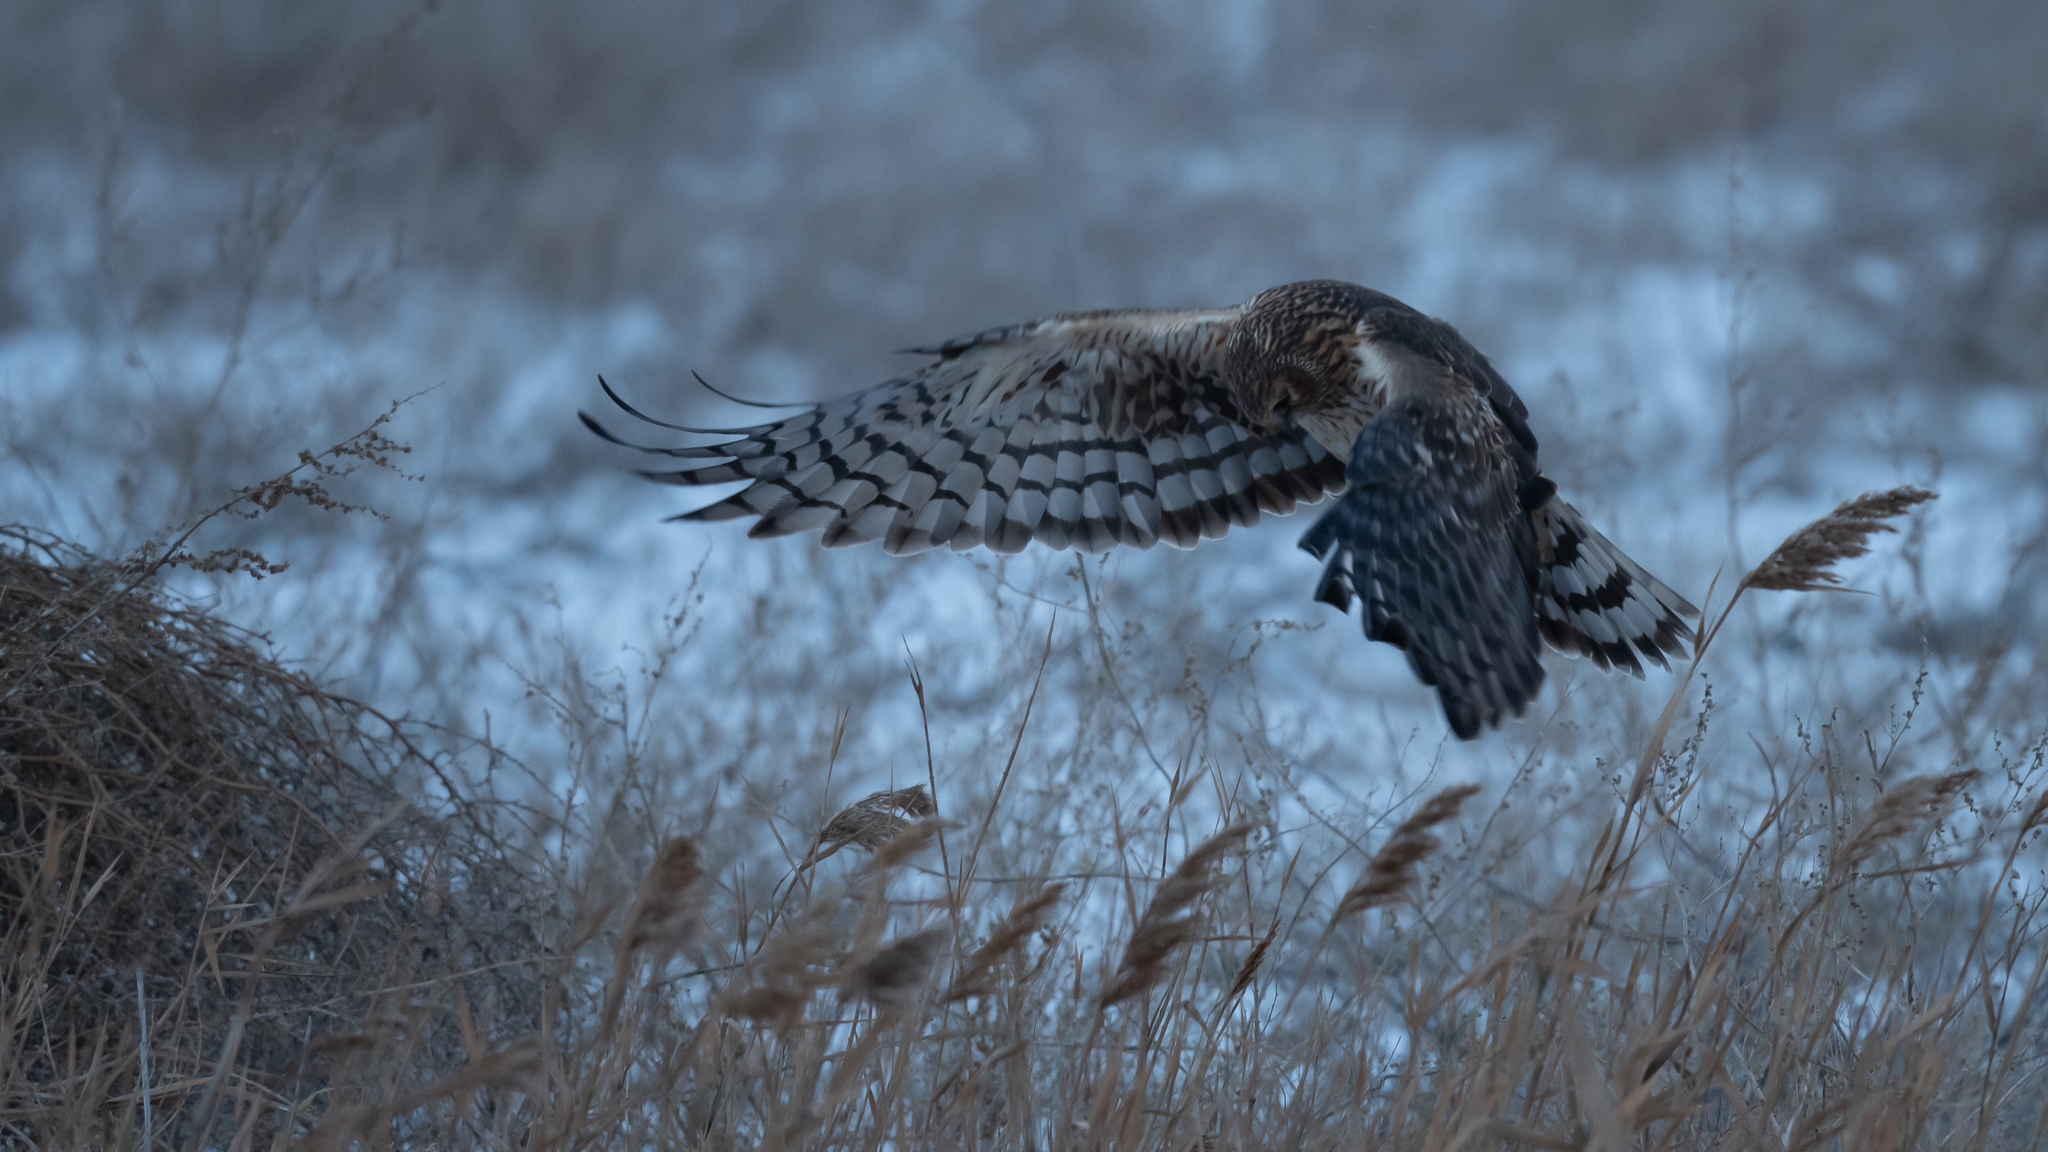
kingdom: Animalia
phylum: Chordata
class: Aves
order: Accipitriformes
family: Accipitridae
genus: Circus
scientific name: Circus cyaneus
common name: Hen harrier
